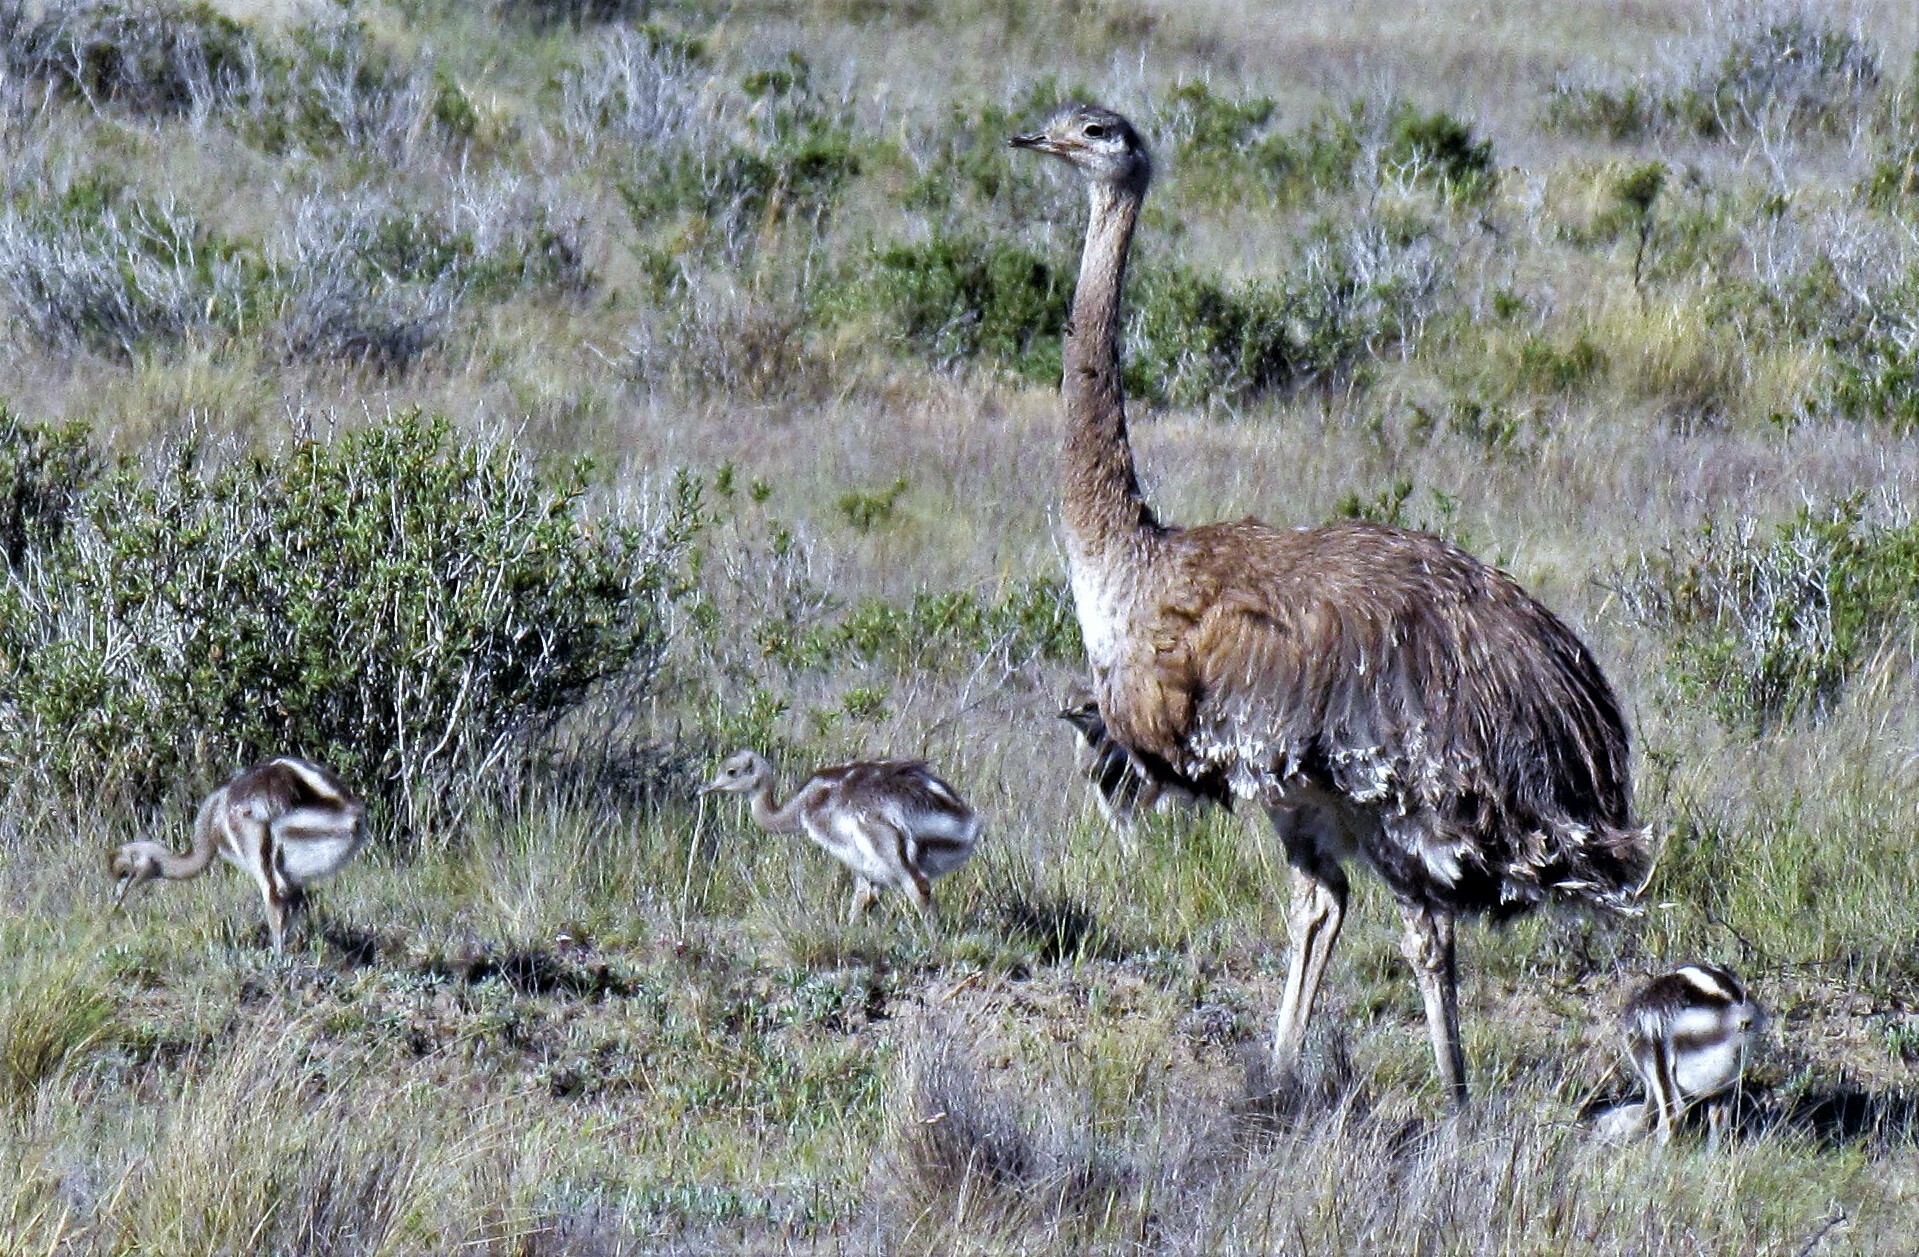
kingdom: Animalia
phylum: Chordata
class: Aves
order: Rheiformes
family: Rheidae
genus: Rhea
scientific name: Rhea pennata
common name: Lesser rhea
